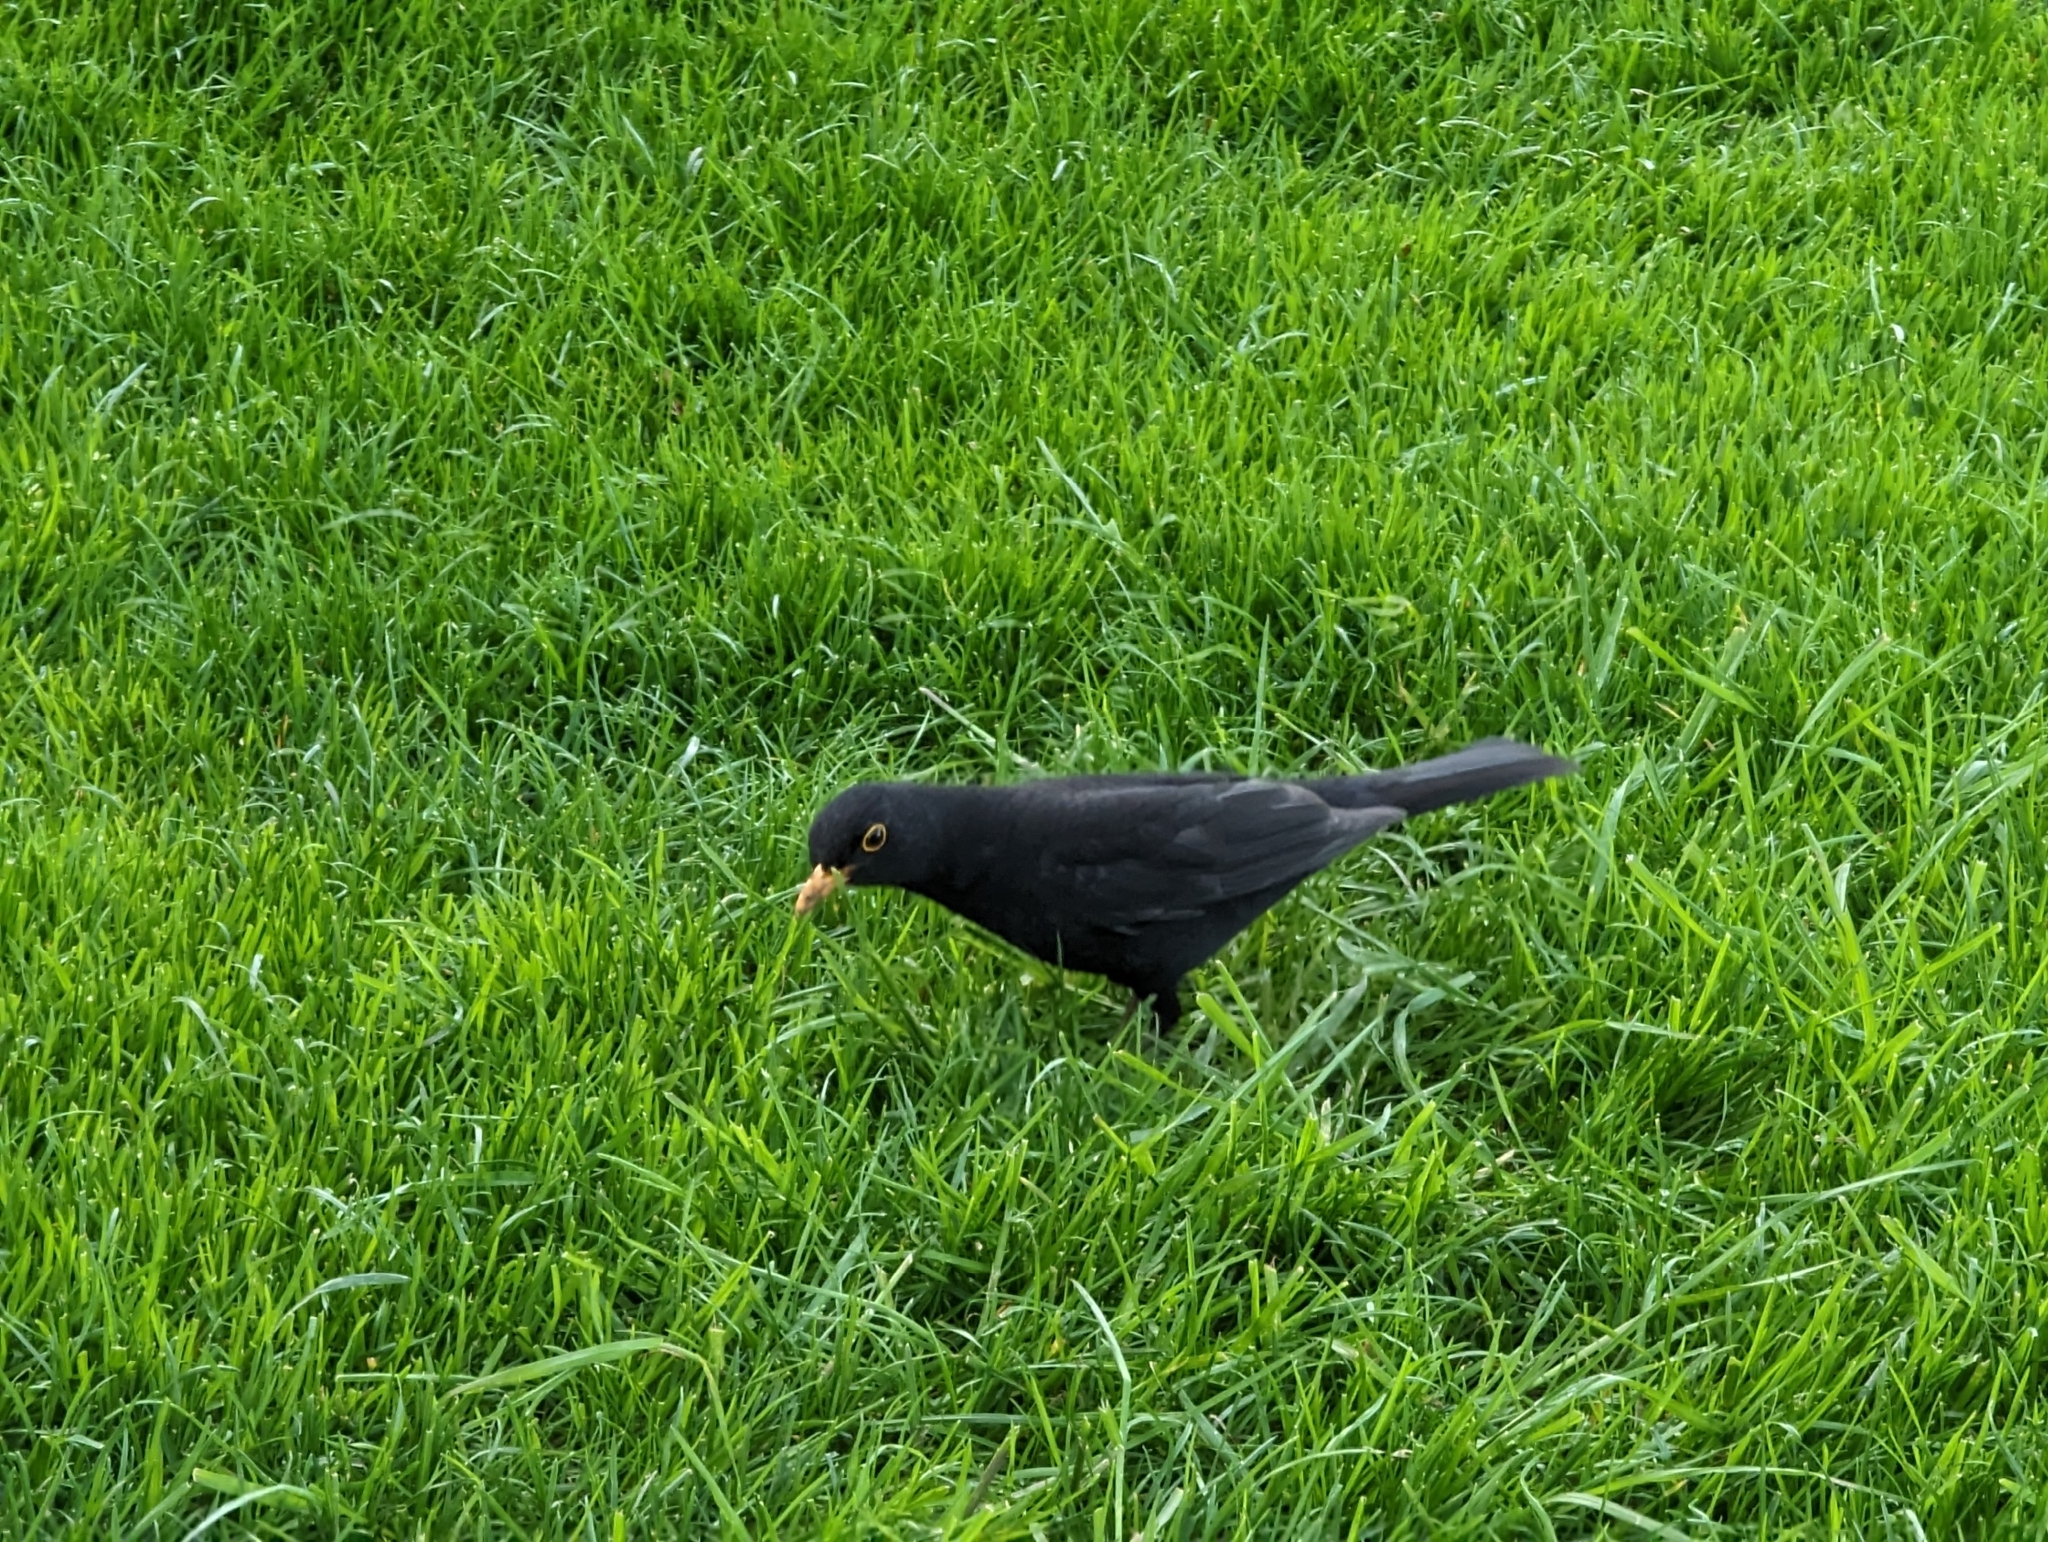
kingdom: Animalia
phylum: Chordata
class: Aves
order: Passeriformes
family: Turdidae
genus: Turdus
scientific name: Turdus merula
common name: Common blackbird
